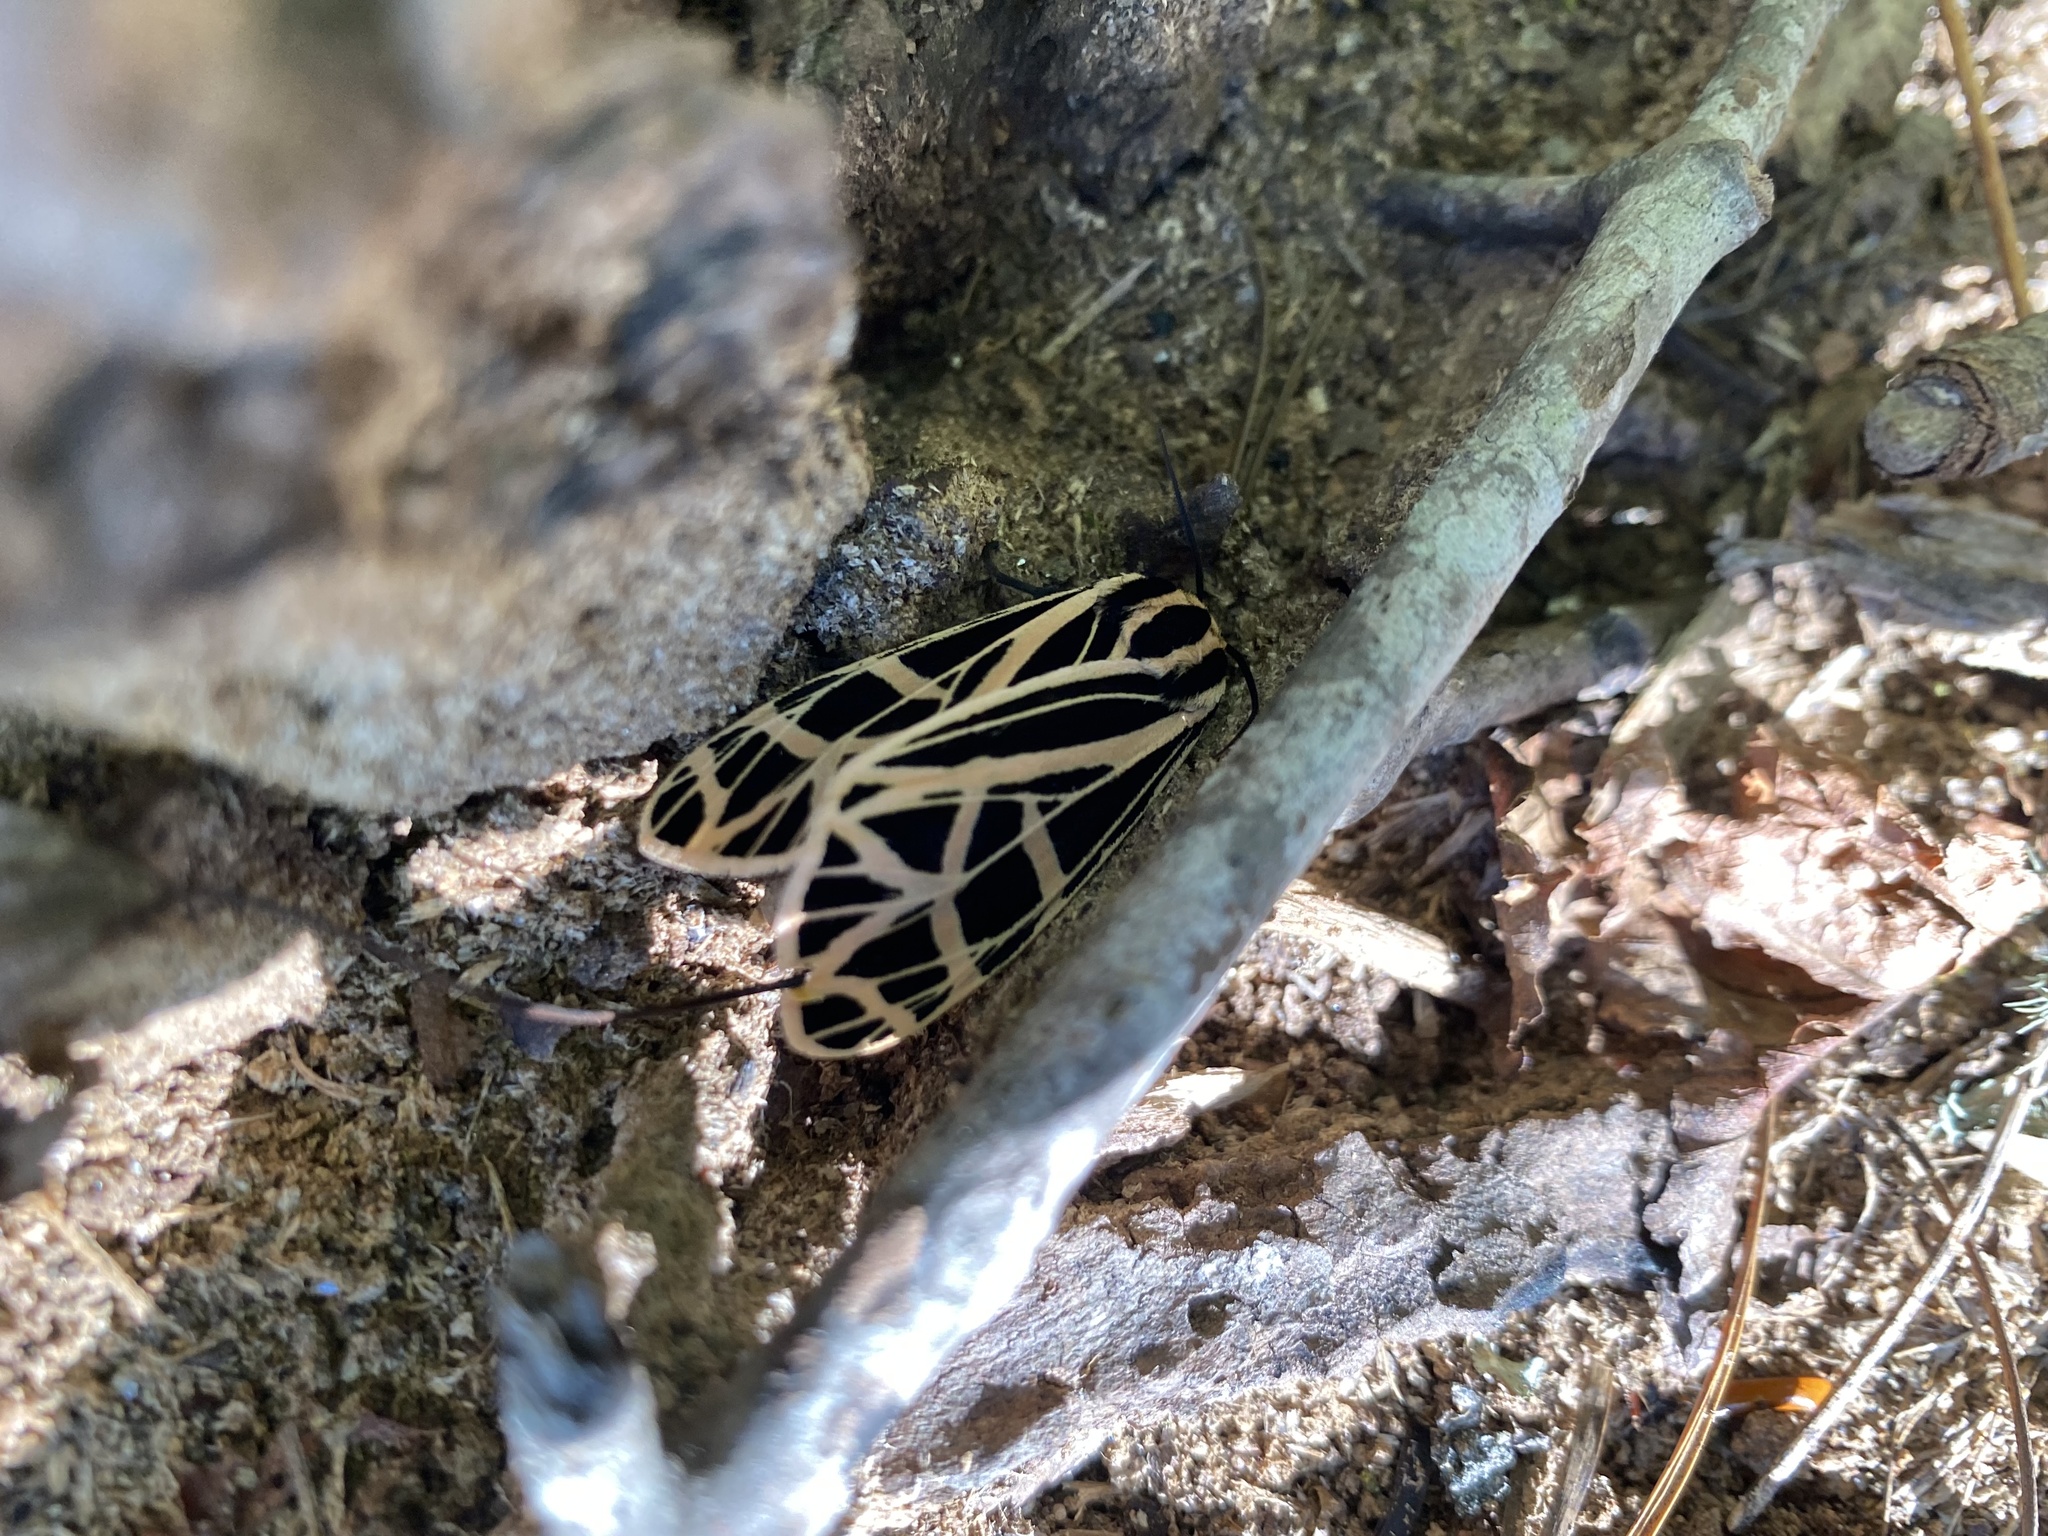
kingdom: Animalia
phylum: Arthropoda
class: Insecta
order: Lepidoptera
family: Erebidae
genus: Grammia
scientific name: Grammia parthenice
